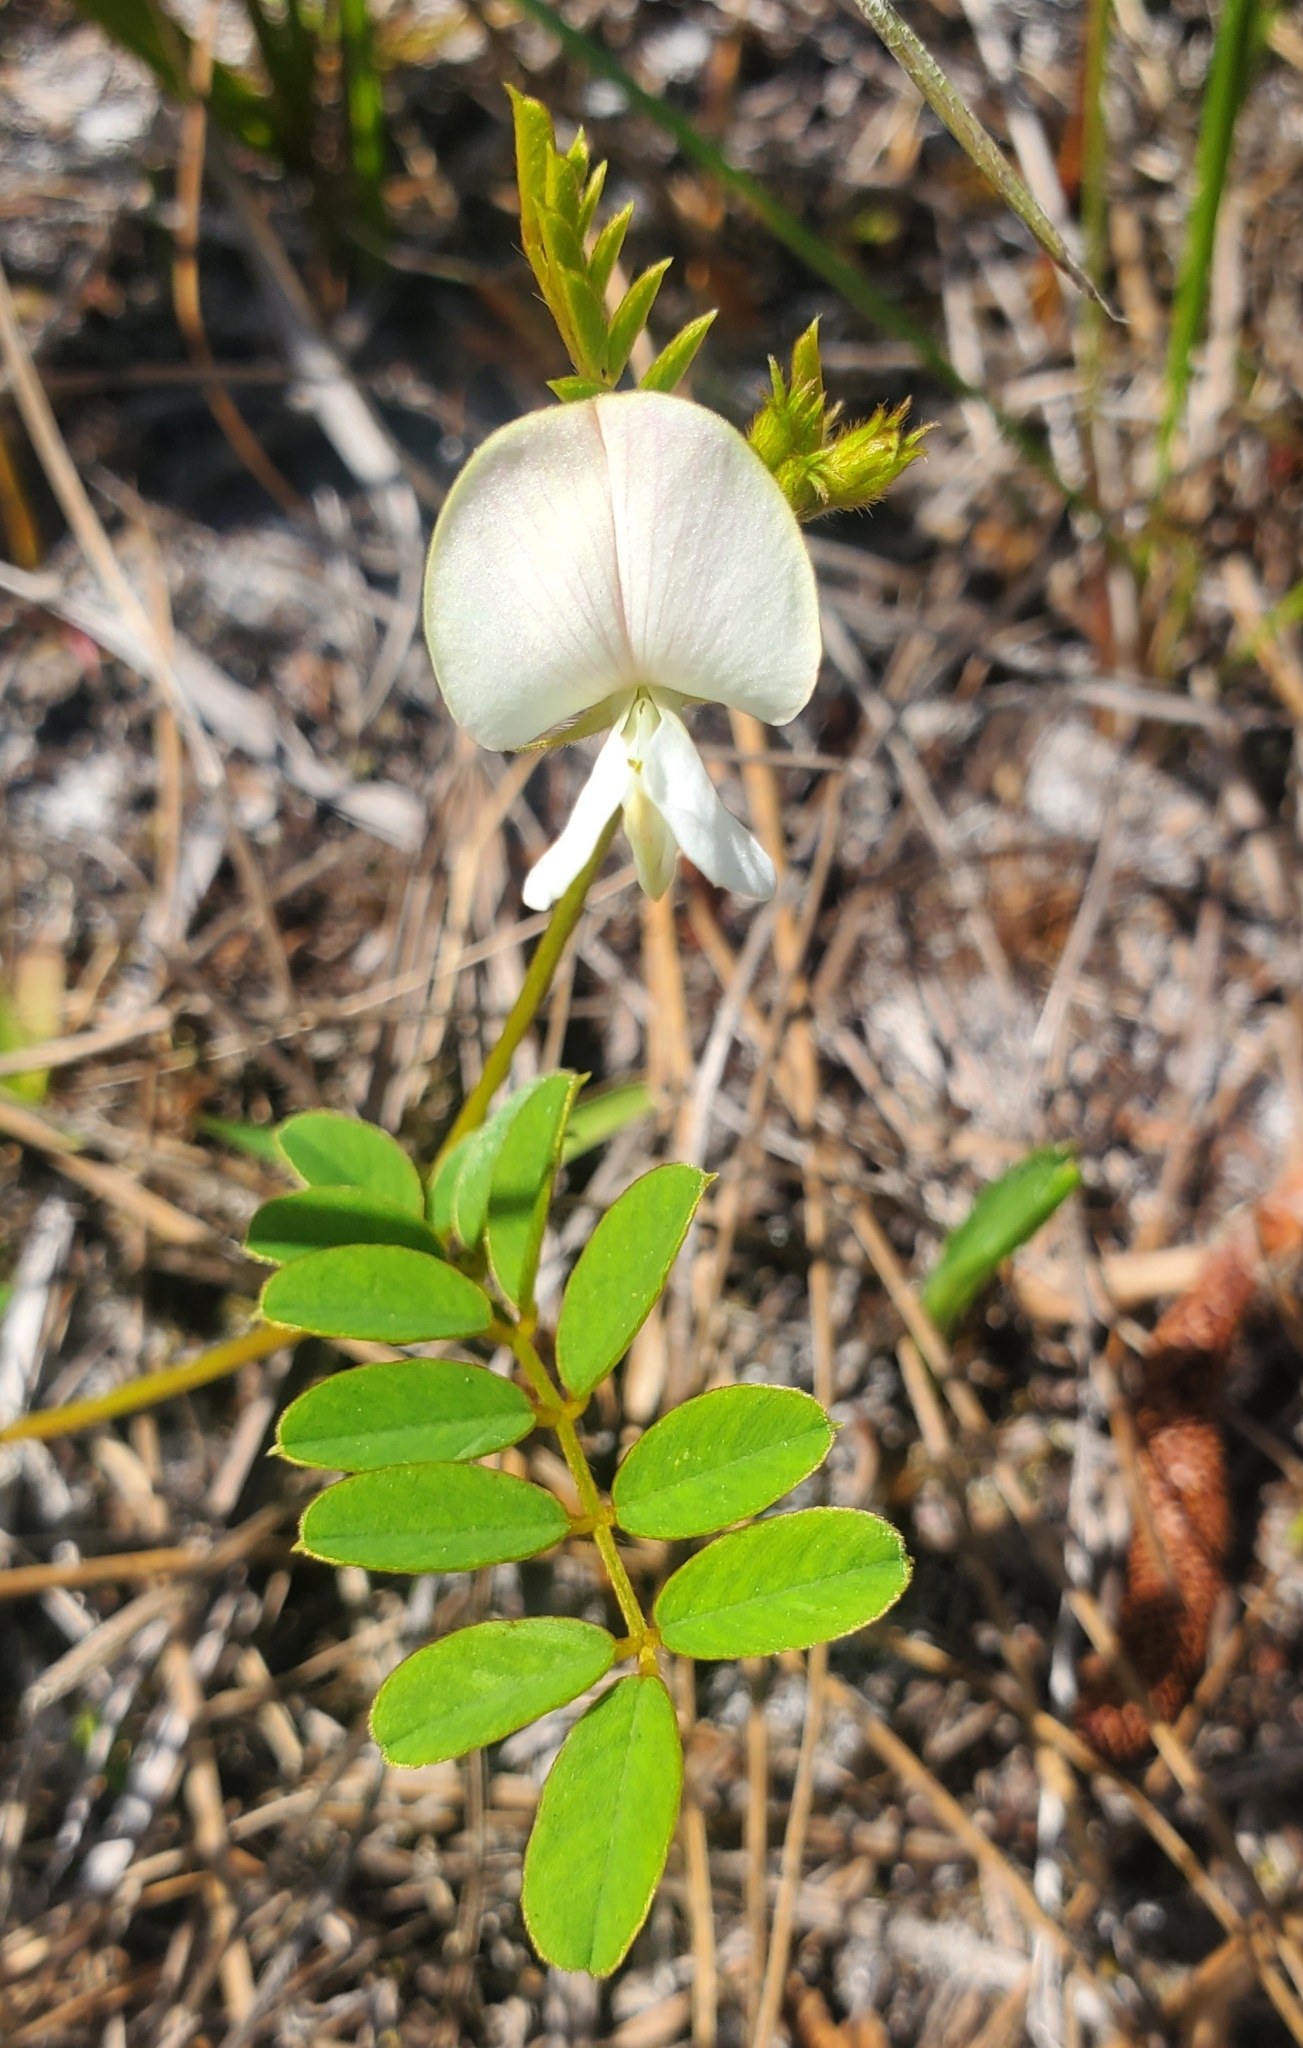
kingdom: Plantae
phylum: Tracheophyta
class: Magnoliopsida
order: Fabales
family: Fabaceae
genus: Tephrosia
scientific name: Tephrosia spicata
